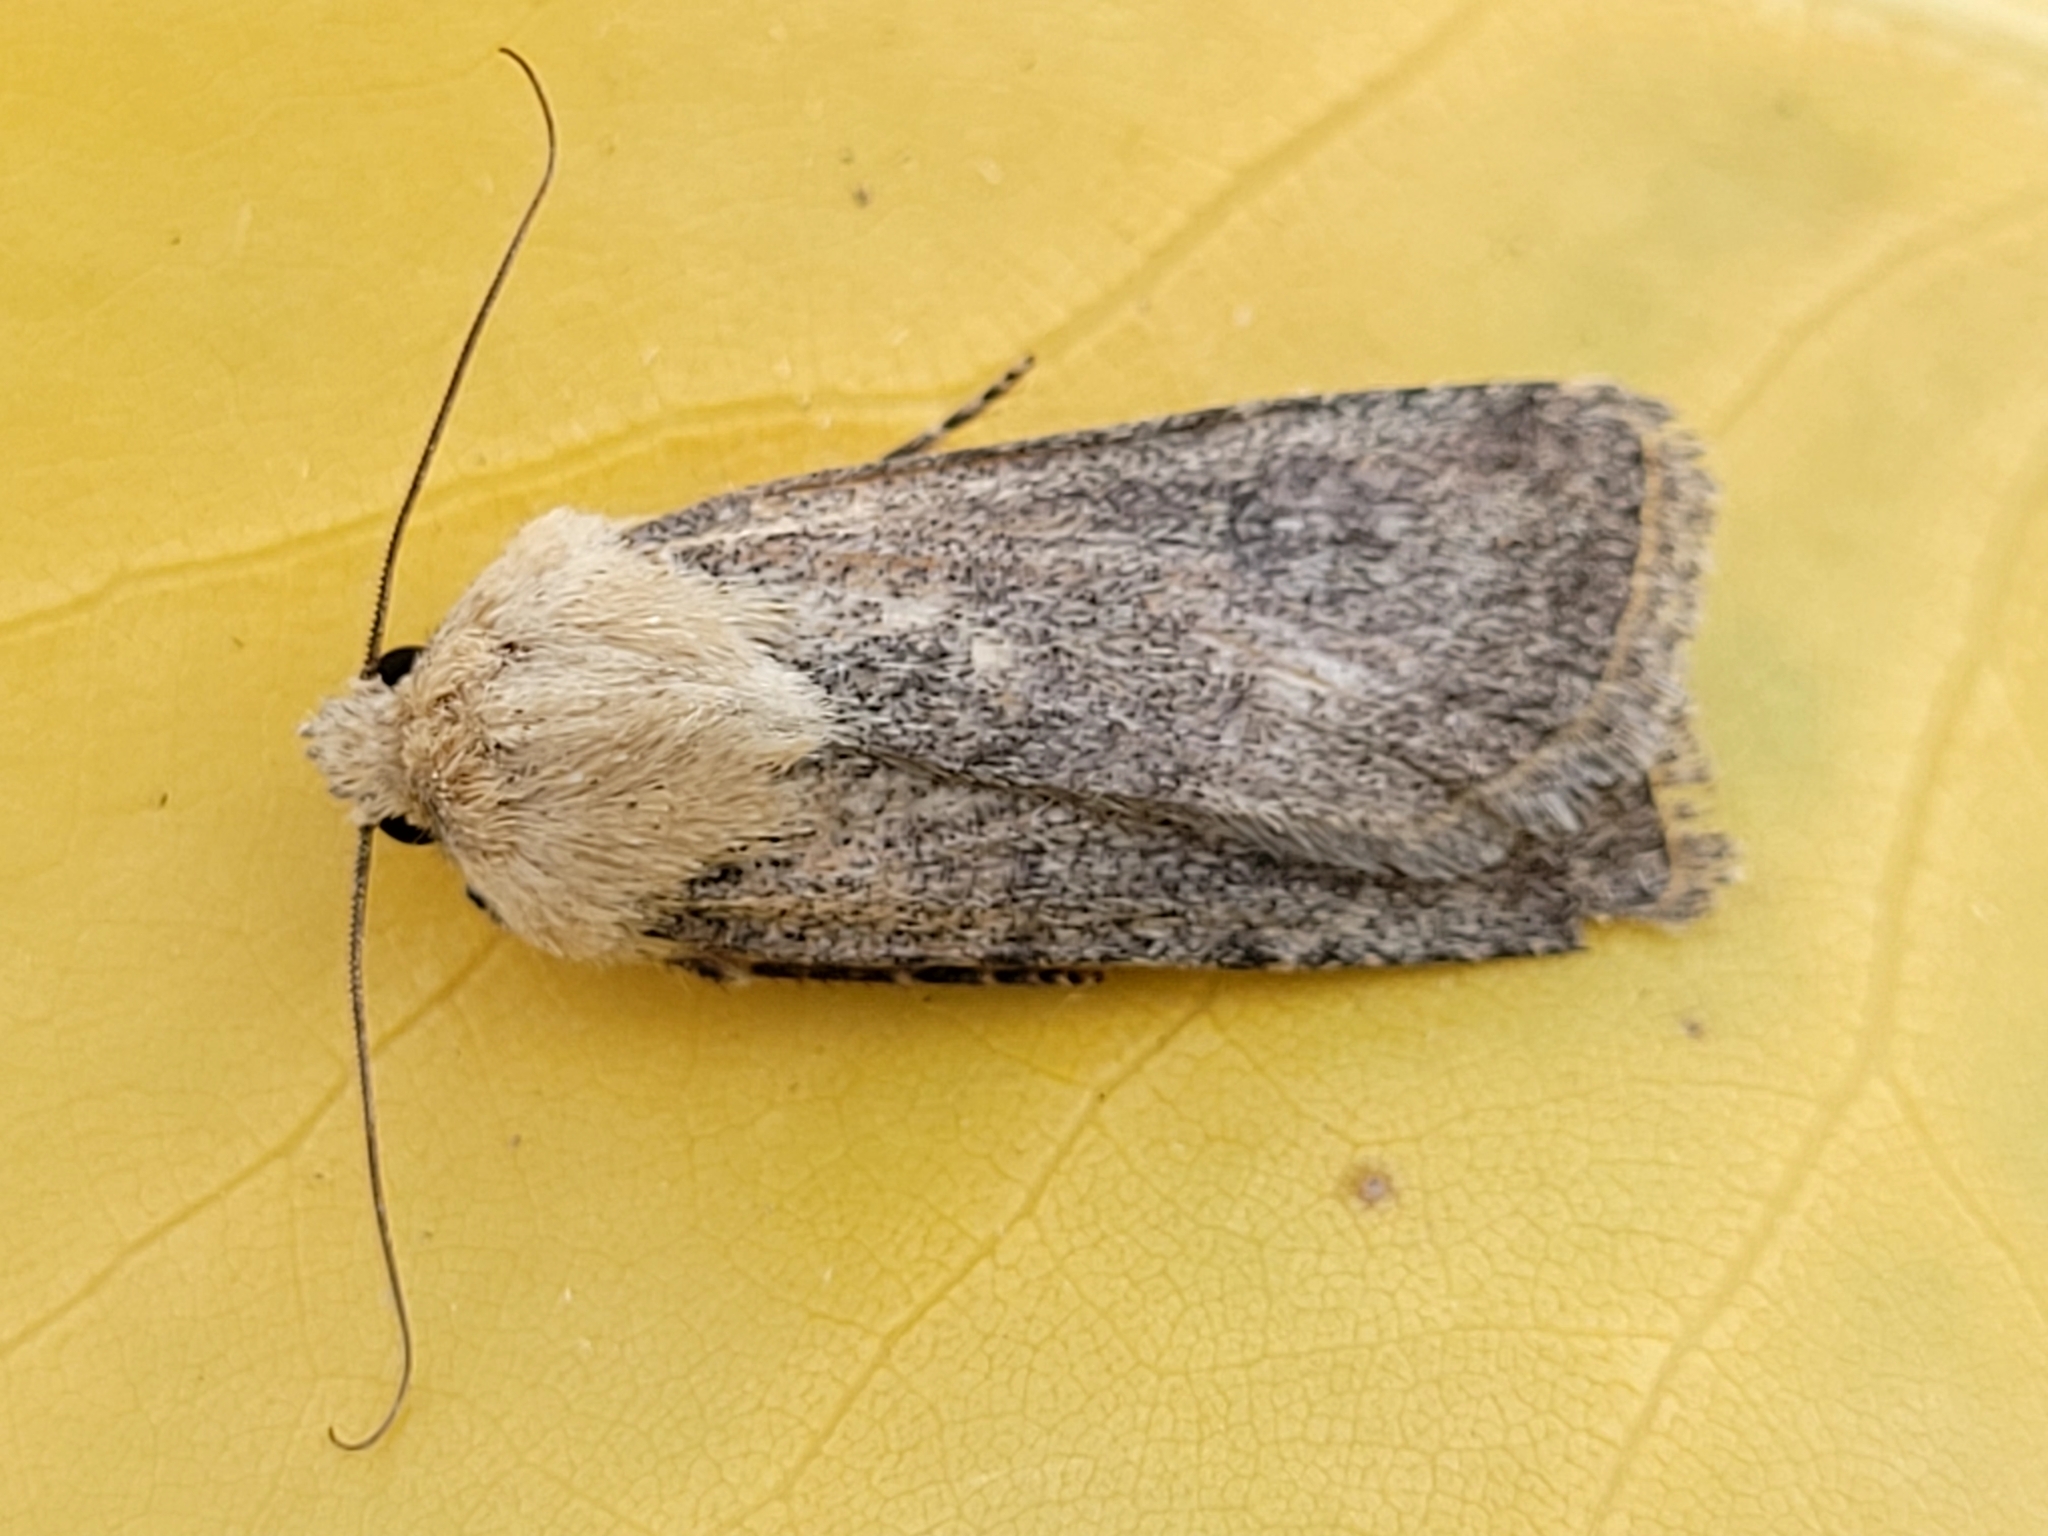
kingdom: Animalia
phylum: Arthropoda
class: Insecta
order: Lepidoptera
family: Noctuidae
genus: Euxoa
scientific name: Euxoa tronella
